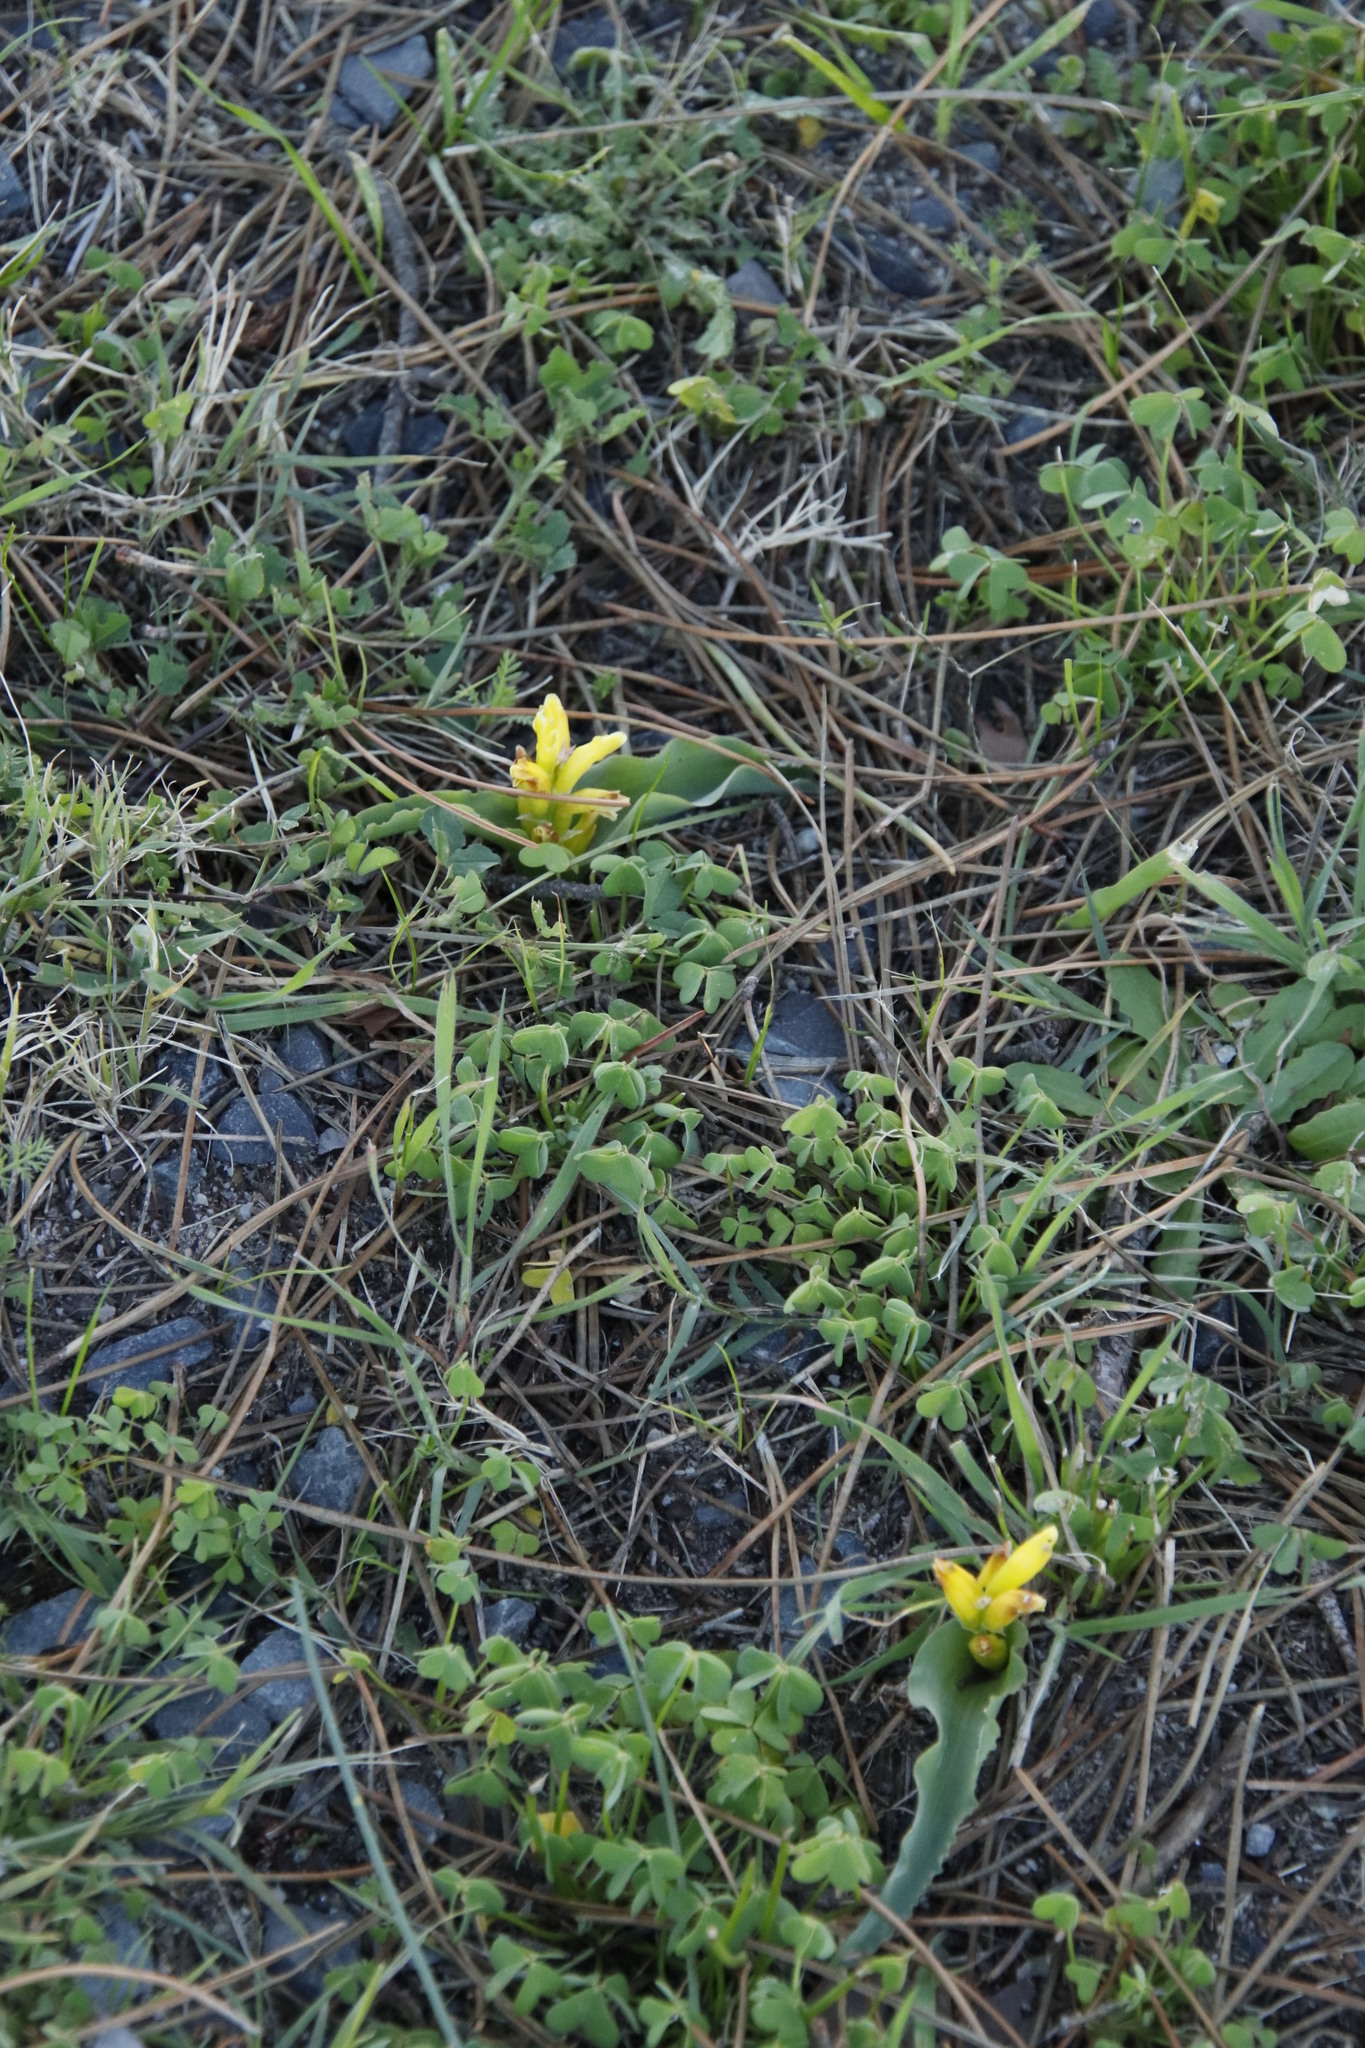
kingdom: Plantae
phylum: Tracheophyta
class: Liliopsida
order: Asparagales
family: Asparagaceae
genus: Lachenalia
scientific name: Lachenalia reflexa
